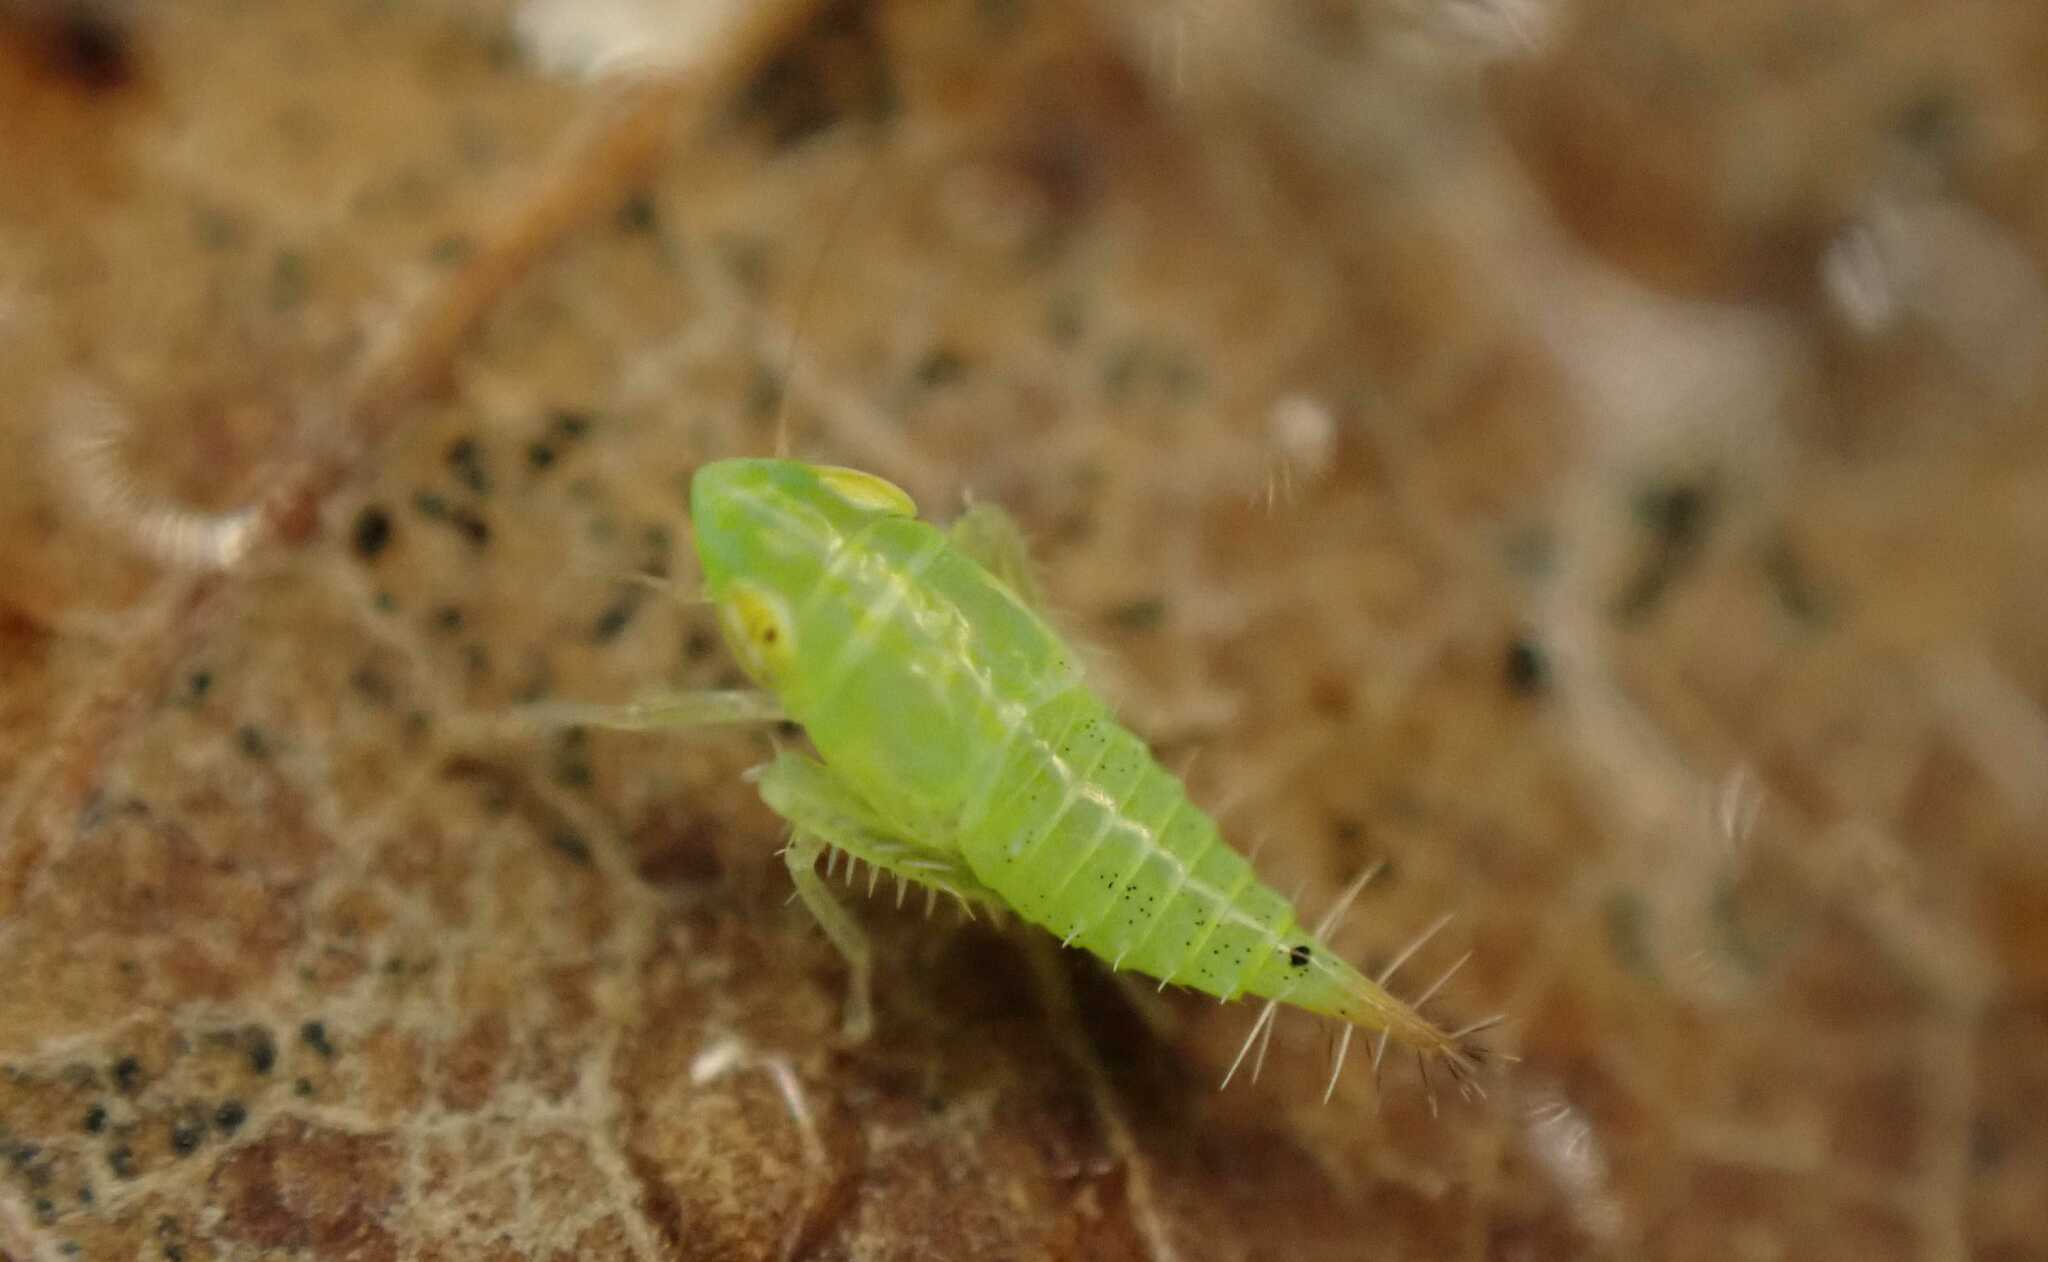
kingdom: Animalia
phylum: Arthropoda
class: Insecta
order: Hemiptera
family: Cicadellidae
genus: Fieberiella
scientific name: Fieberiella
